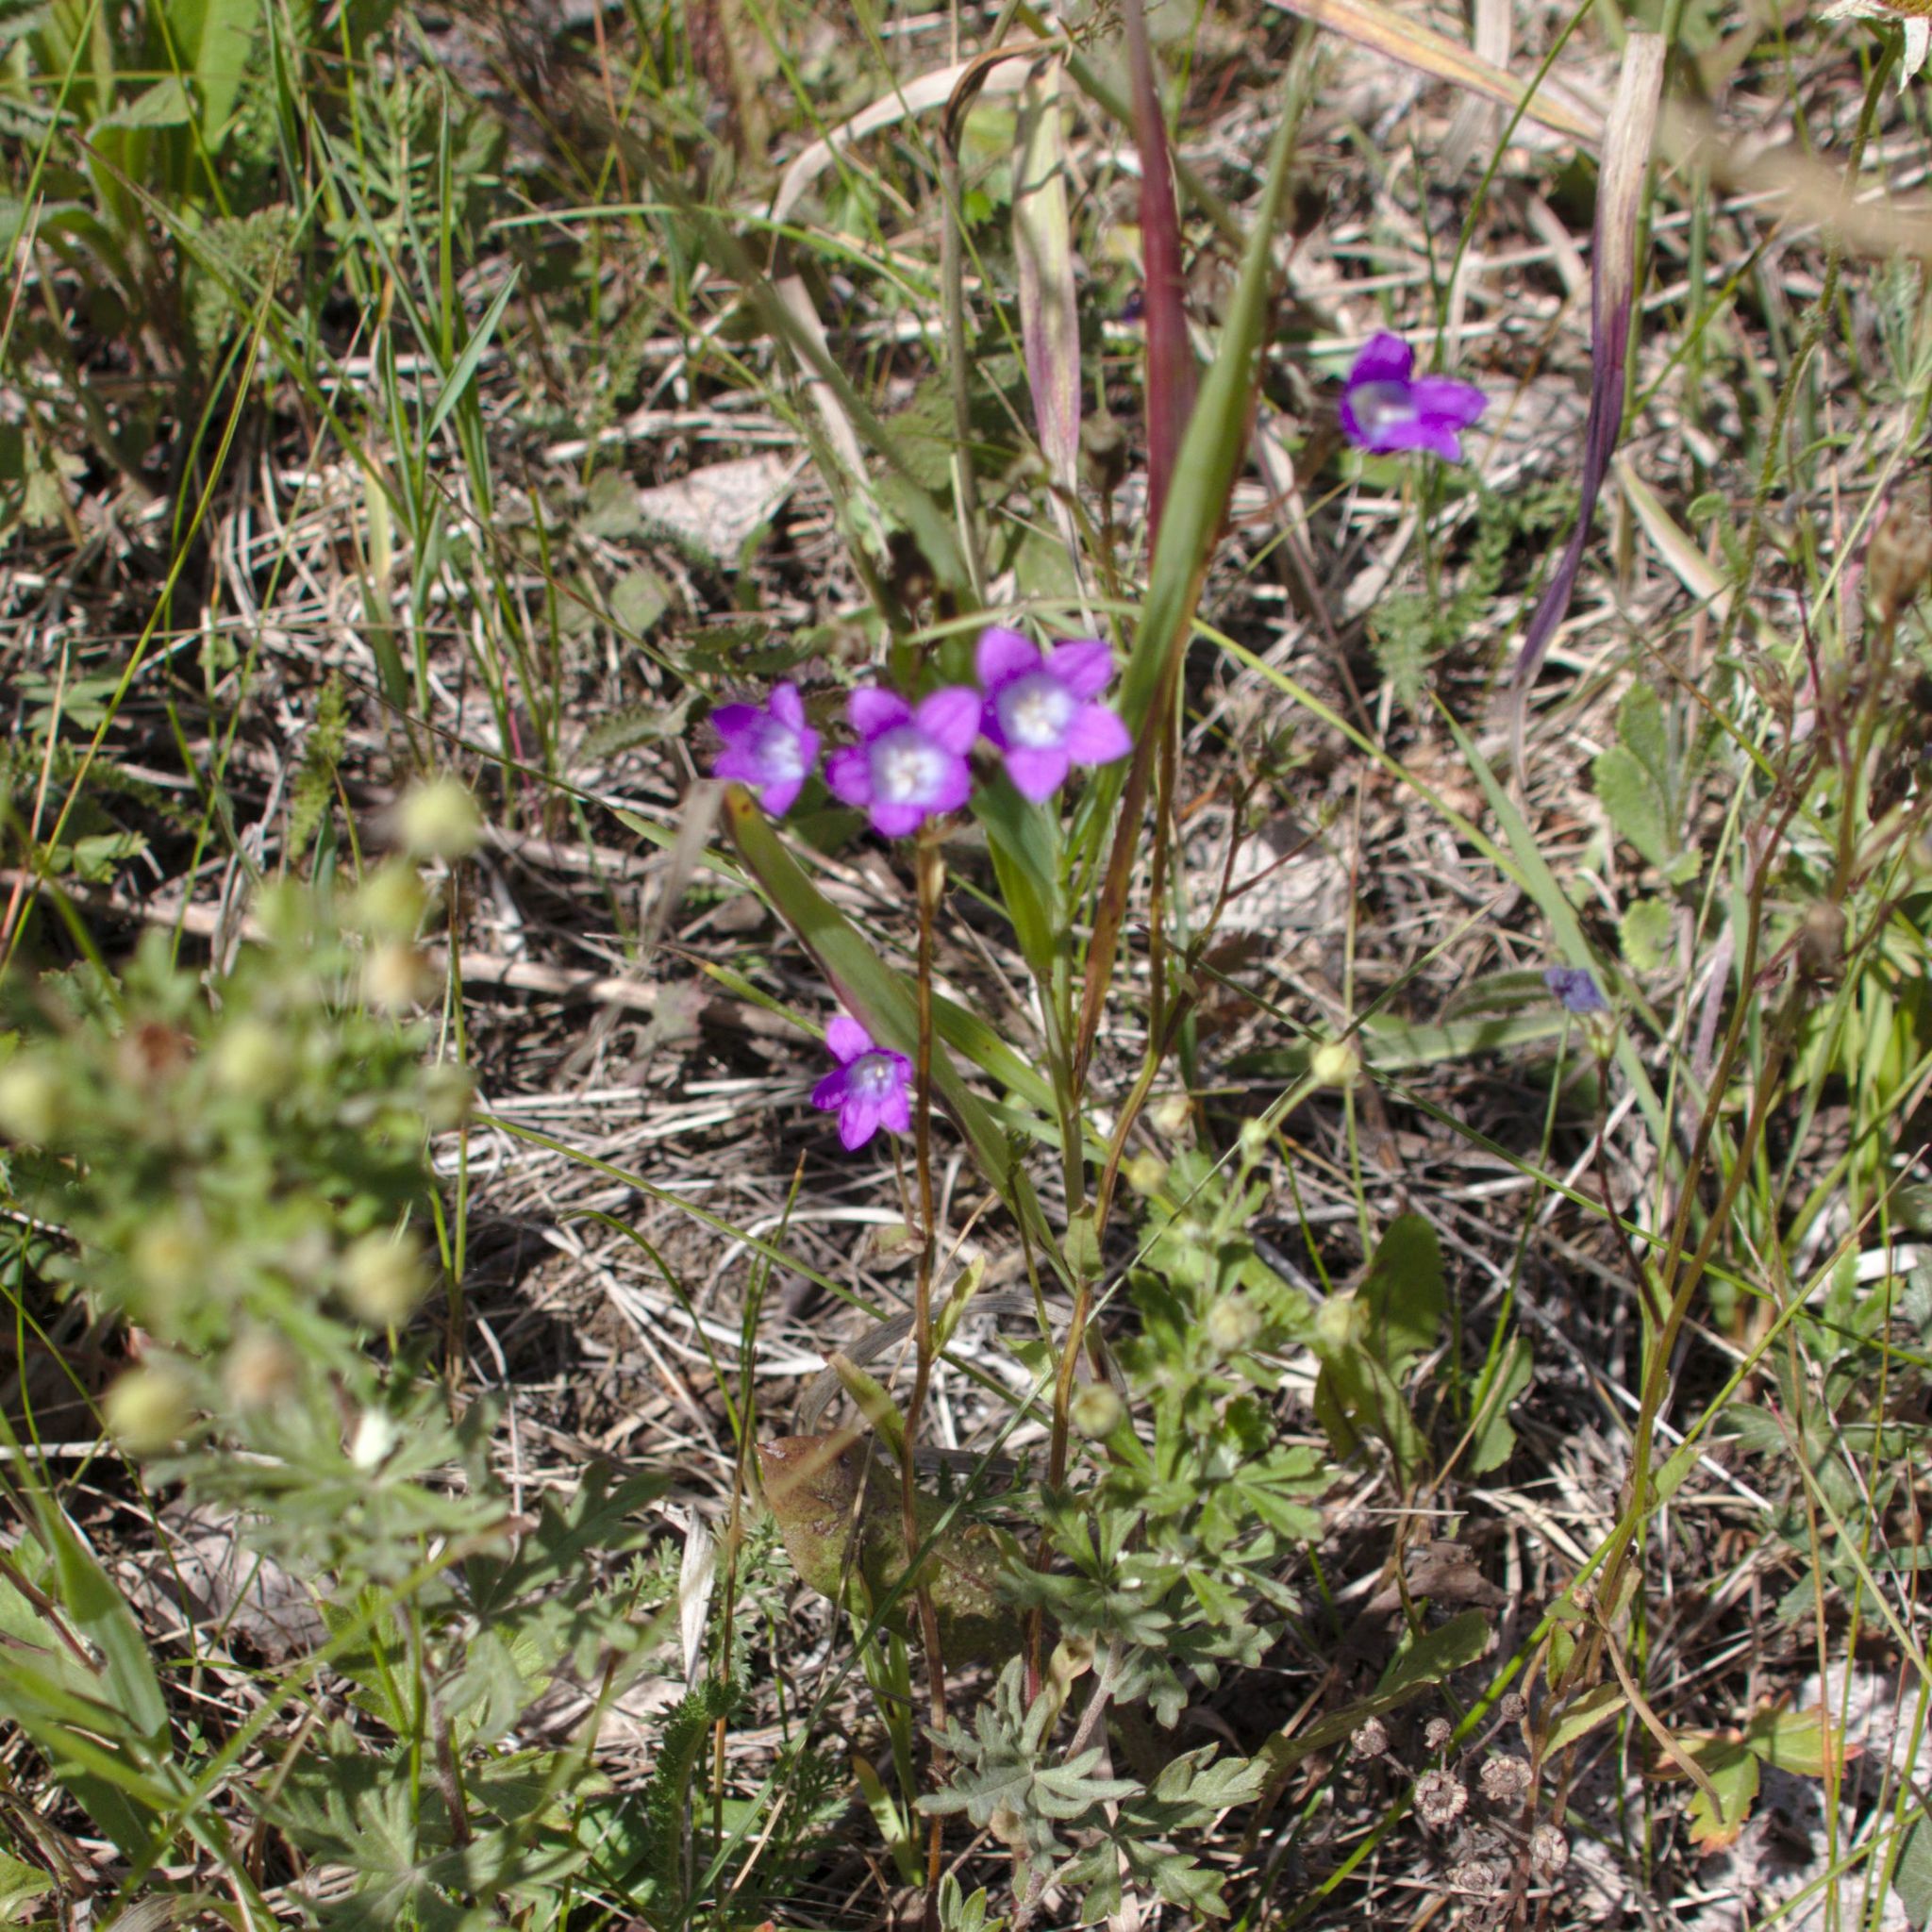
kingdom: Plantae
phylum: Tracheophyta
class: Magnoliopsida
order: Asterales
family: Campanulaceae
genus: Campanula
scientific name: Campanula patula
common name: Spreading bellflower
